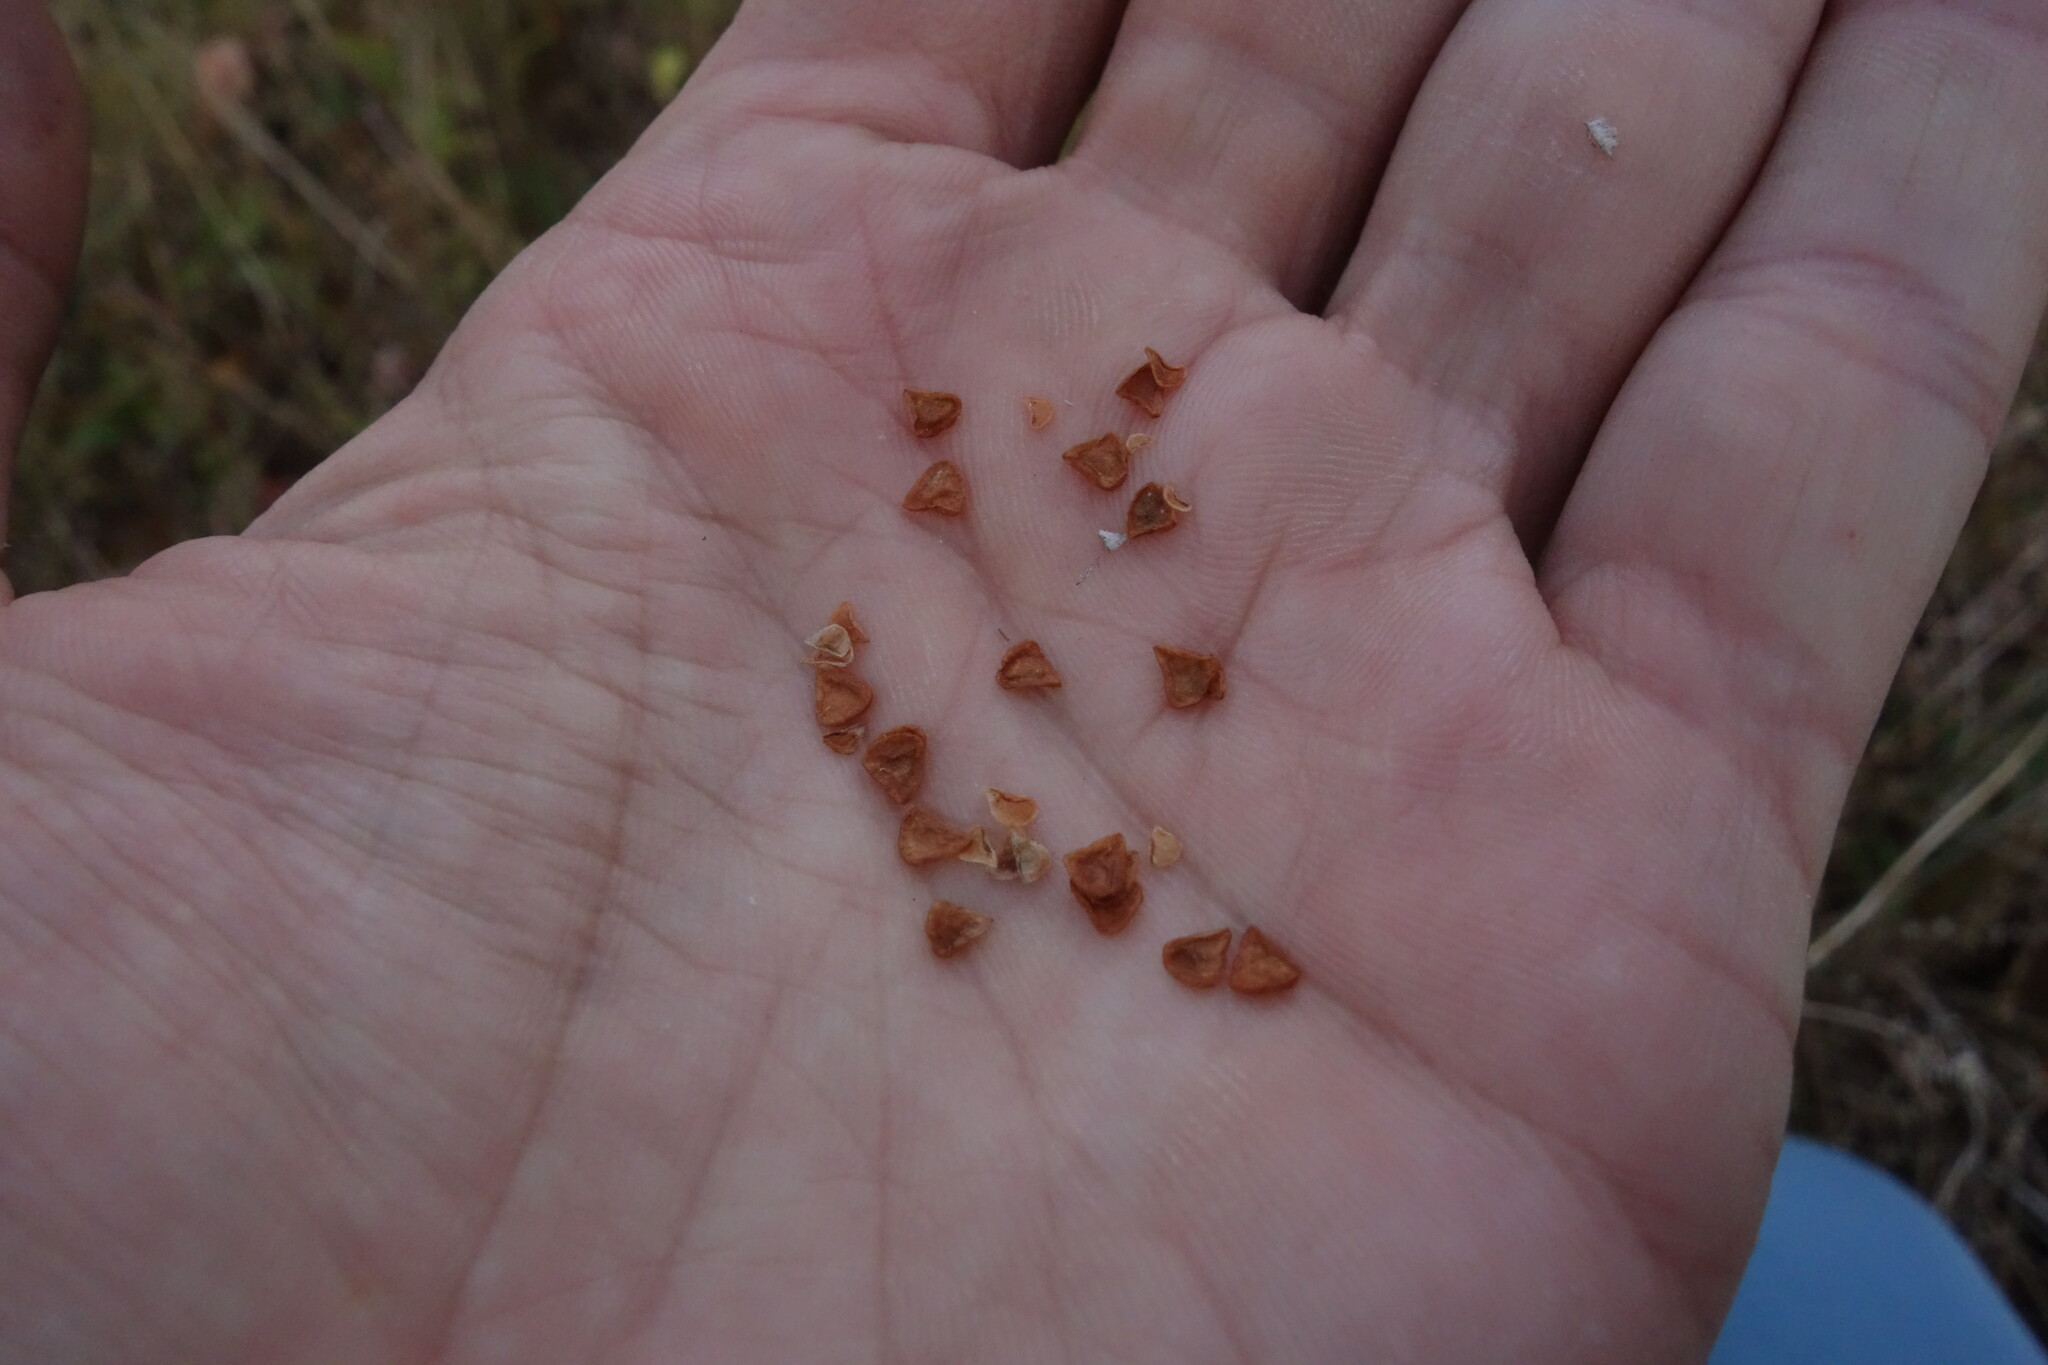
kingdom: Plantae
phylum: Tracheophyta
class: Liliopsida
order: Liliales
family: Liliaceae
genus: Fritillaria
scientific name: Fritillaria meleagroides
